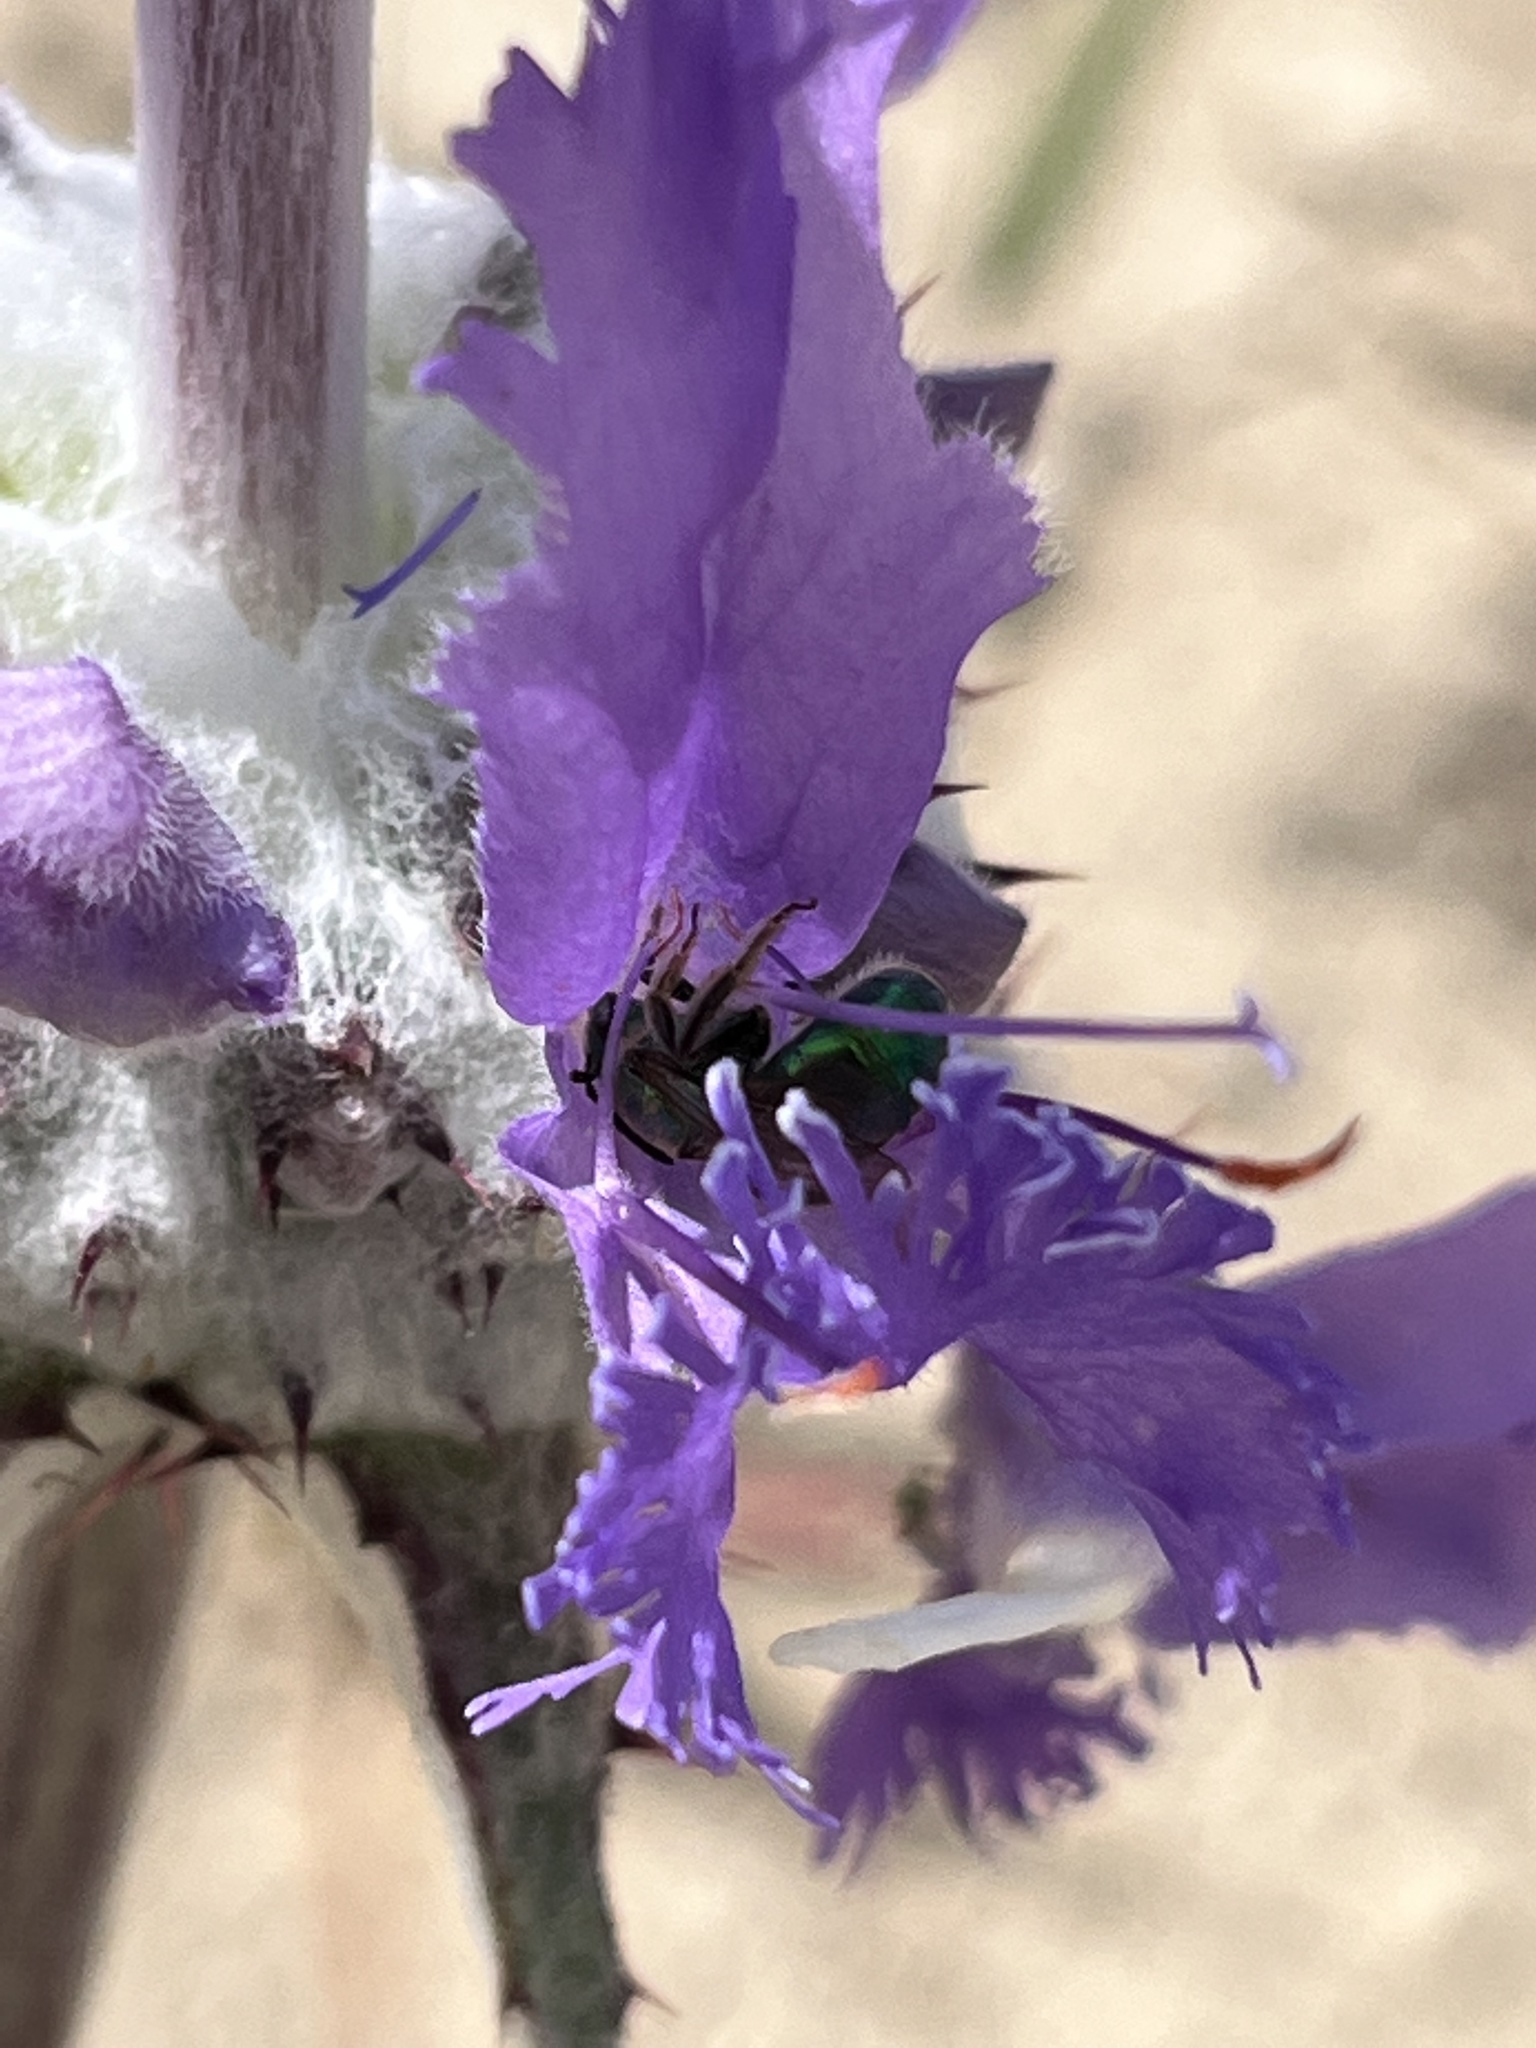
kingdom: Animalia
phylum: Arthropoda
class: Insecta
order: Hymenoptera
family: Halictidae
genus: Augochlorella
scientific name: Augochlorella pomoniella
